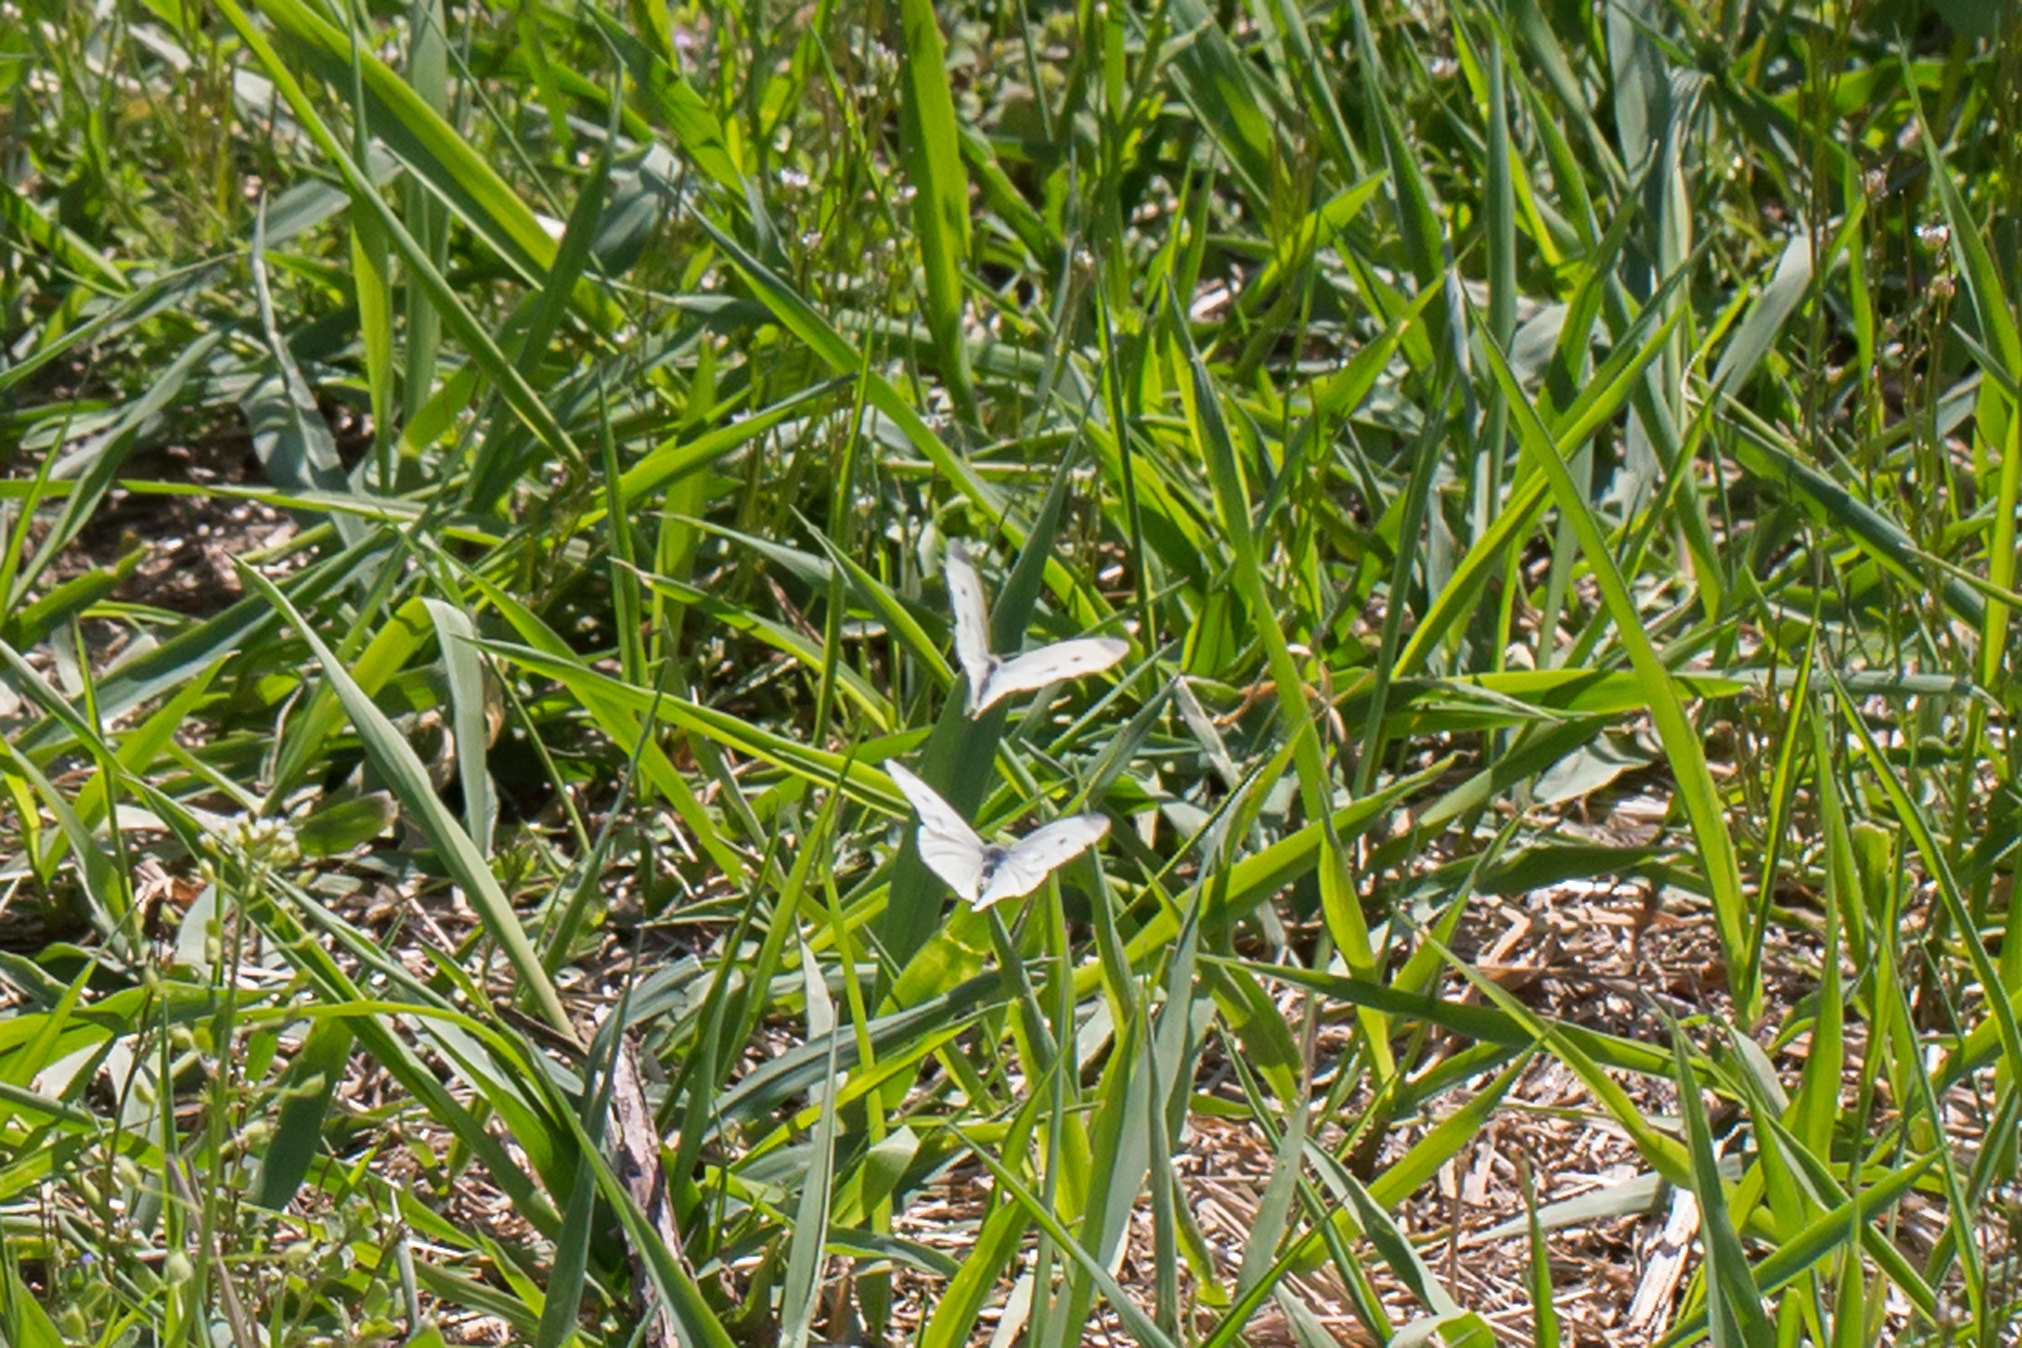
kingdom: Animalia
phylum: Arthropoda
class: Insecta
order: Lepidoptera
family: Pieridae
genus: Pieris
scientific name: Pieris rapae
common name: Small white
